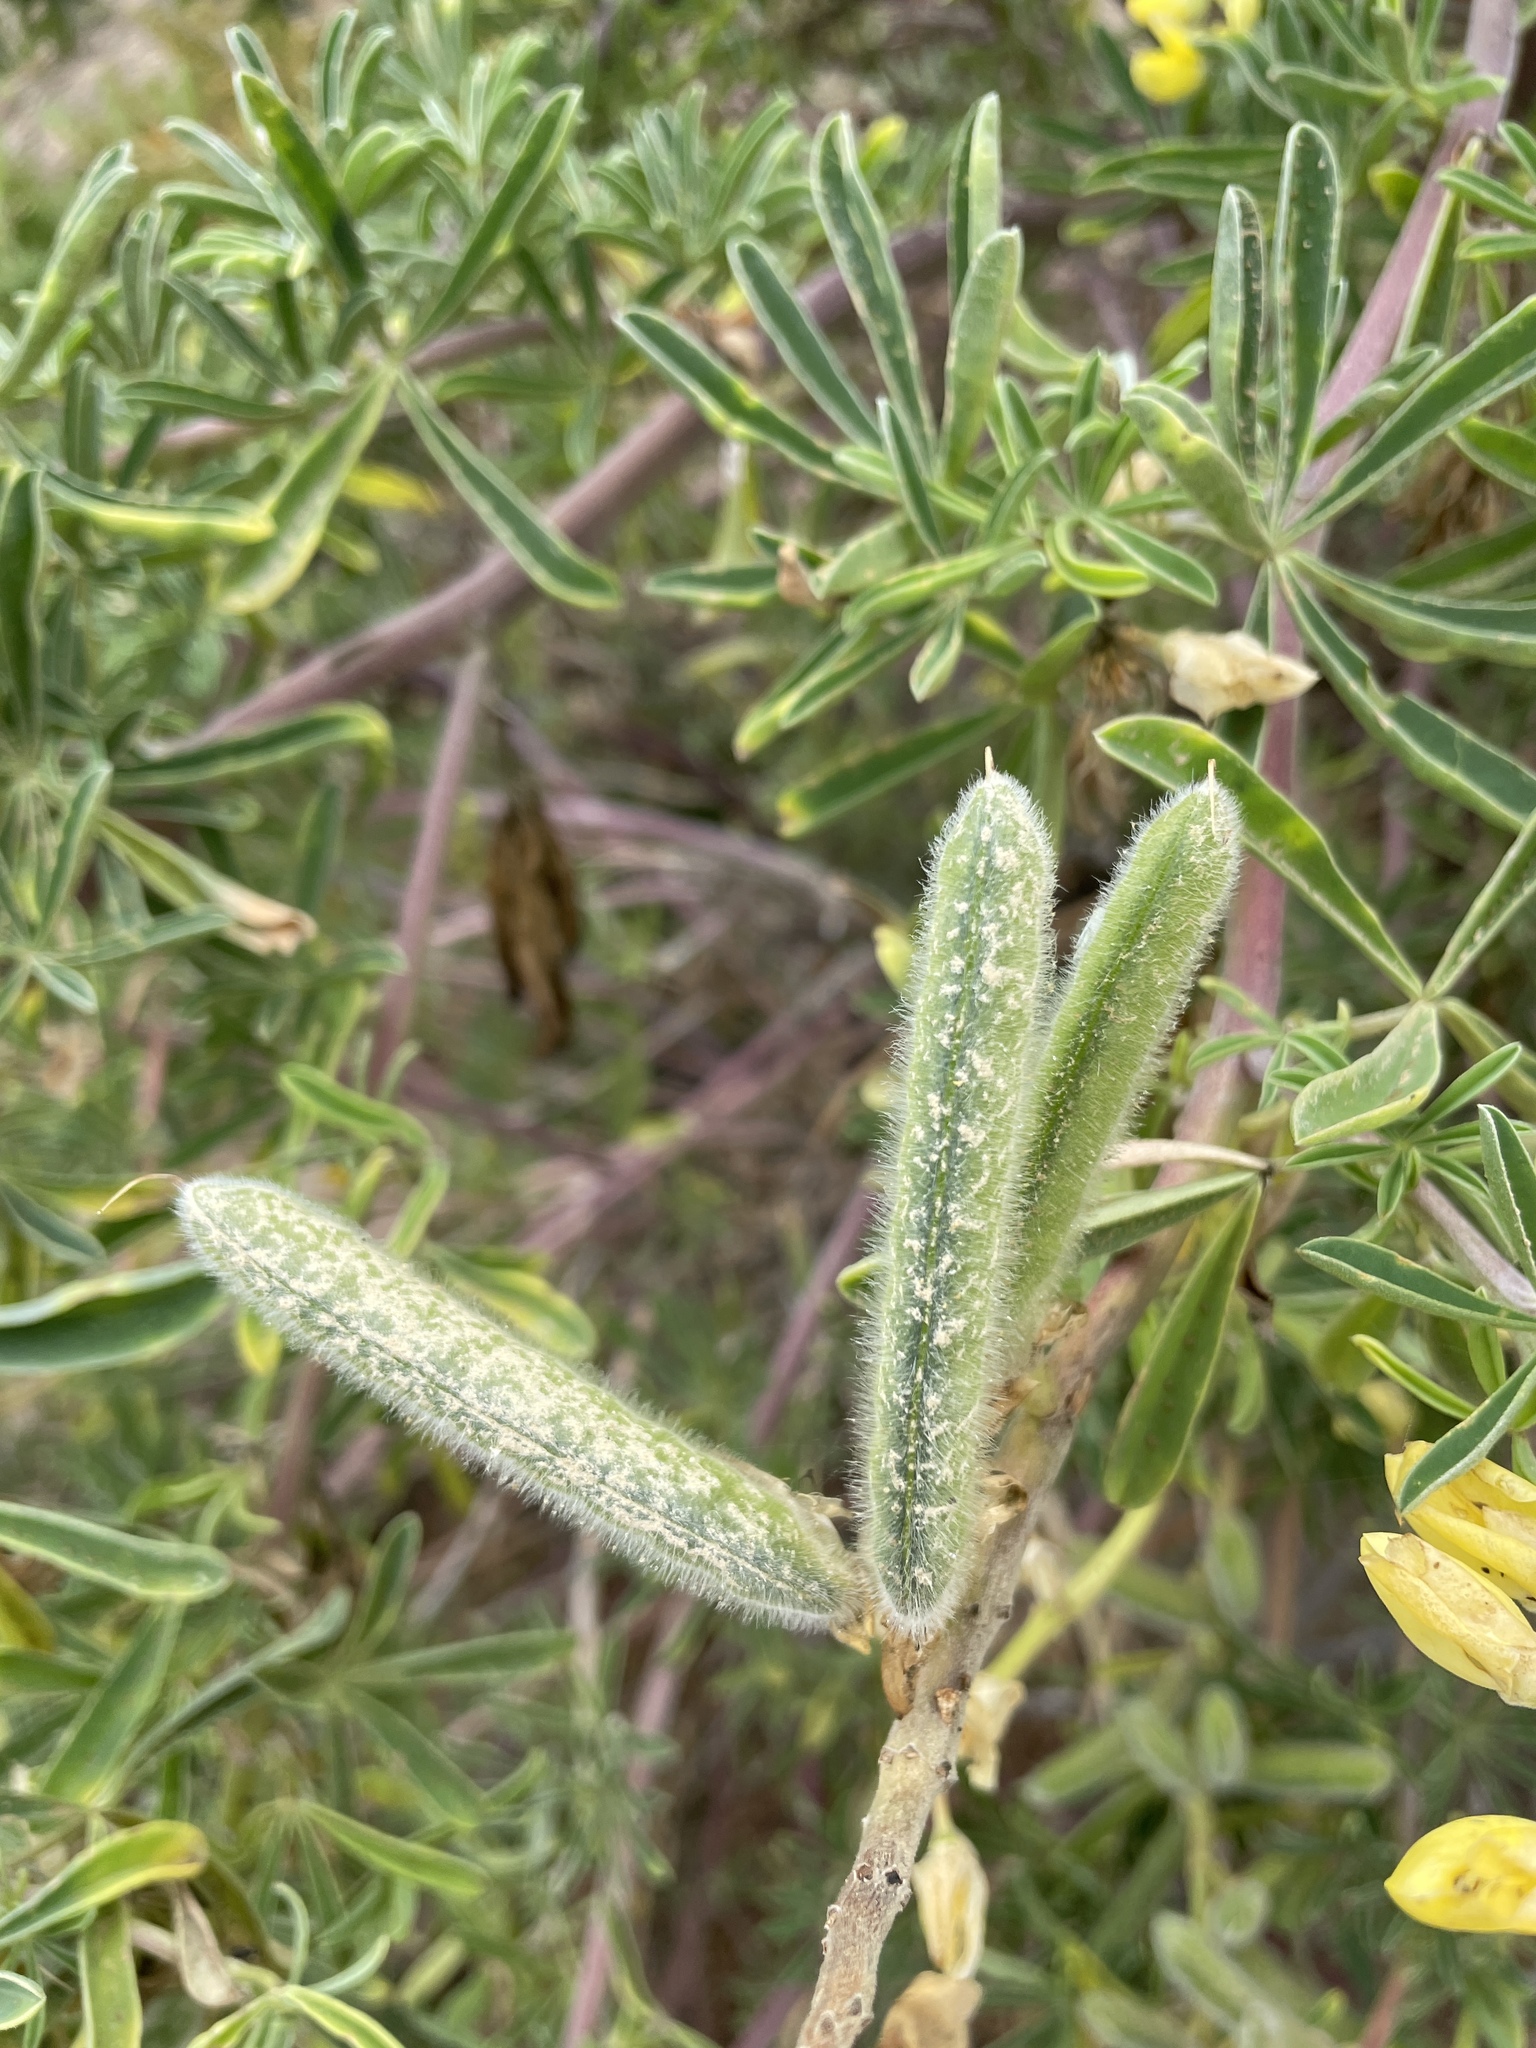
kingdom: Plantae
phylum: Tracheophyta
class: Magnoliopsida
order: Fabales
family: Fabaceae
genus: Lupinus
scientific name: Lupinus arboreus
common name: Yellow bush lupine
